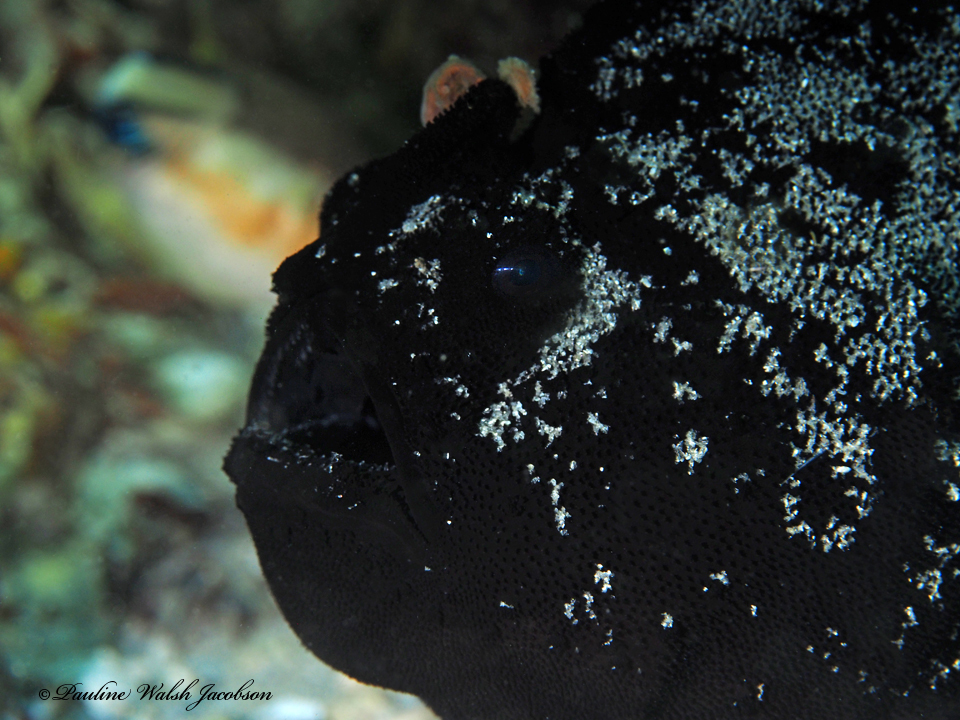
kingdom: Animalia
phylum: Chordata
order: Lophiiformes
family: Antennariidae
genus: Antennarius
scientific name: Antennarius striatus
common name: Striated frogfish
